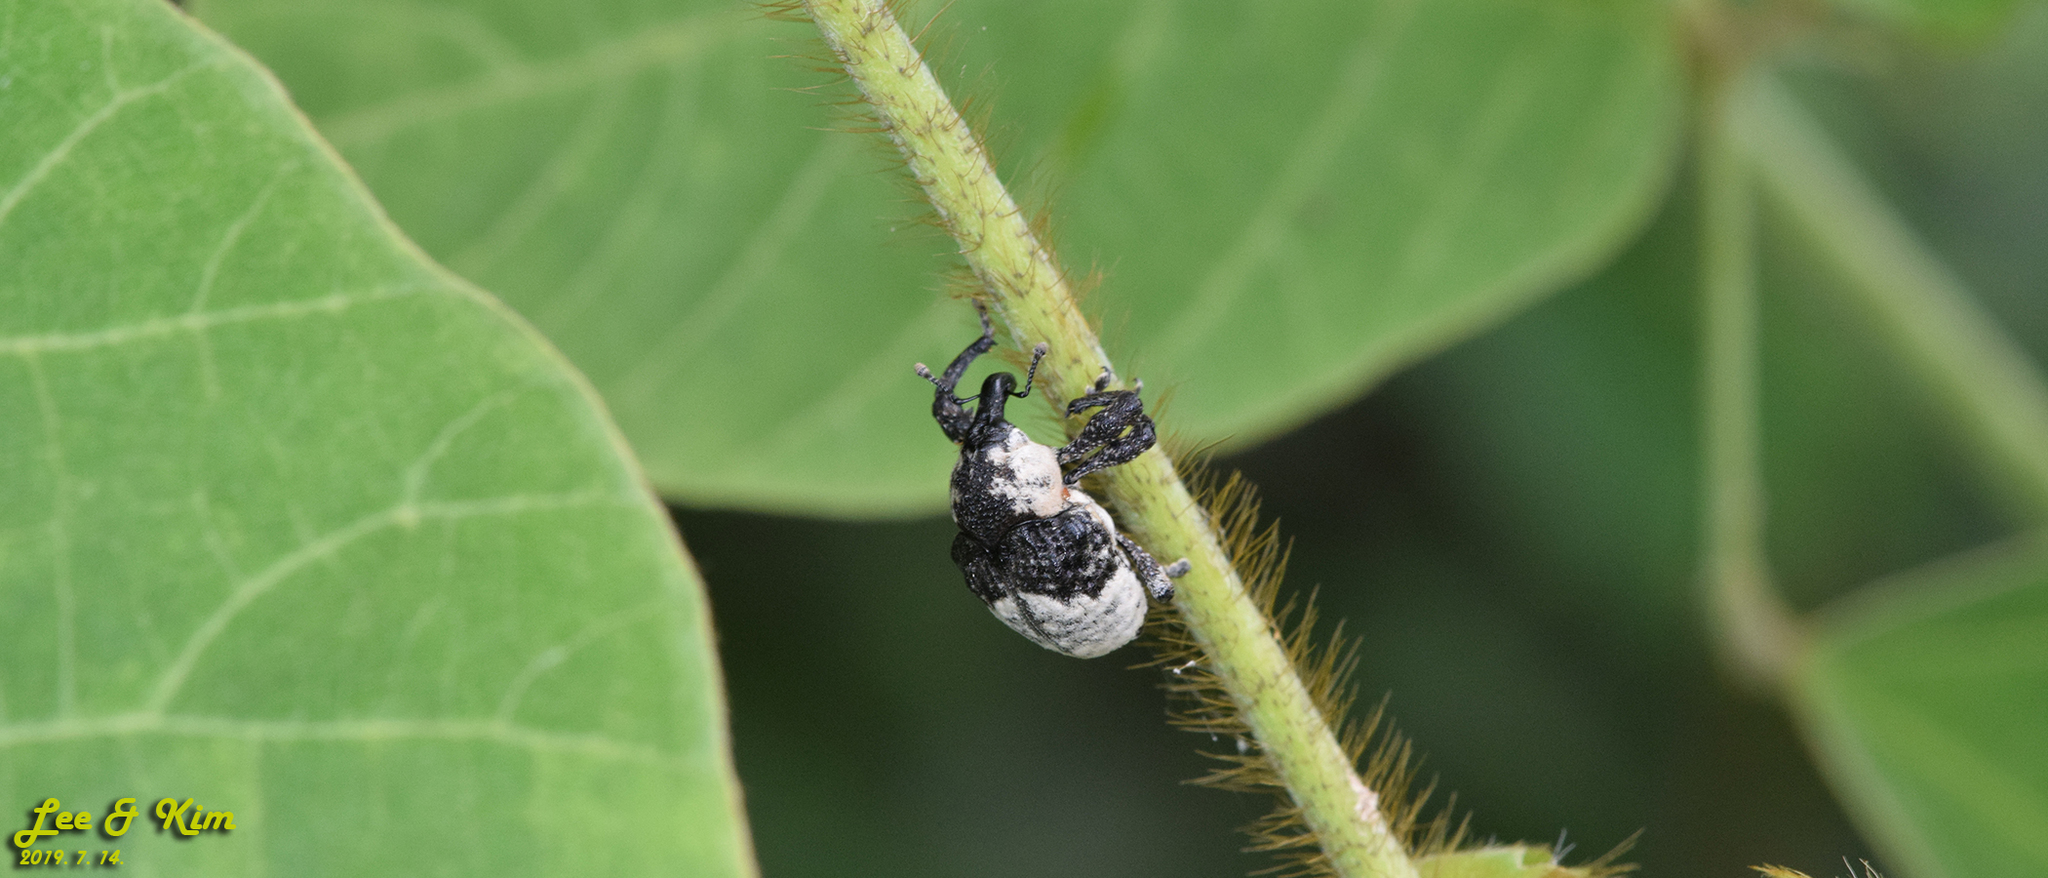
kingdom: Animalia
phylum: Arthropoda
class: Insecta
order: Coleoptera
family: Curculionidae
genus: Alcides
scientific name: Alcides trifidus
